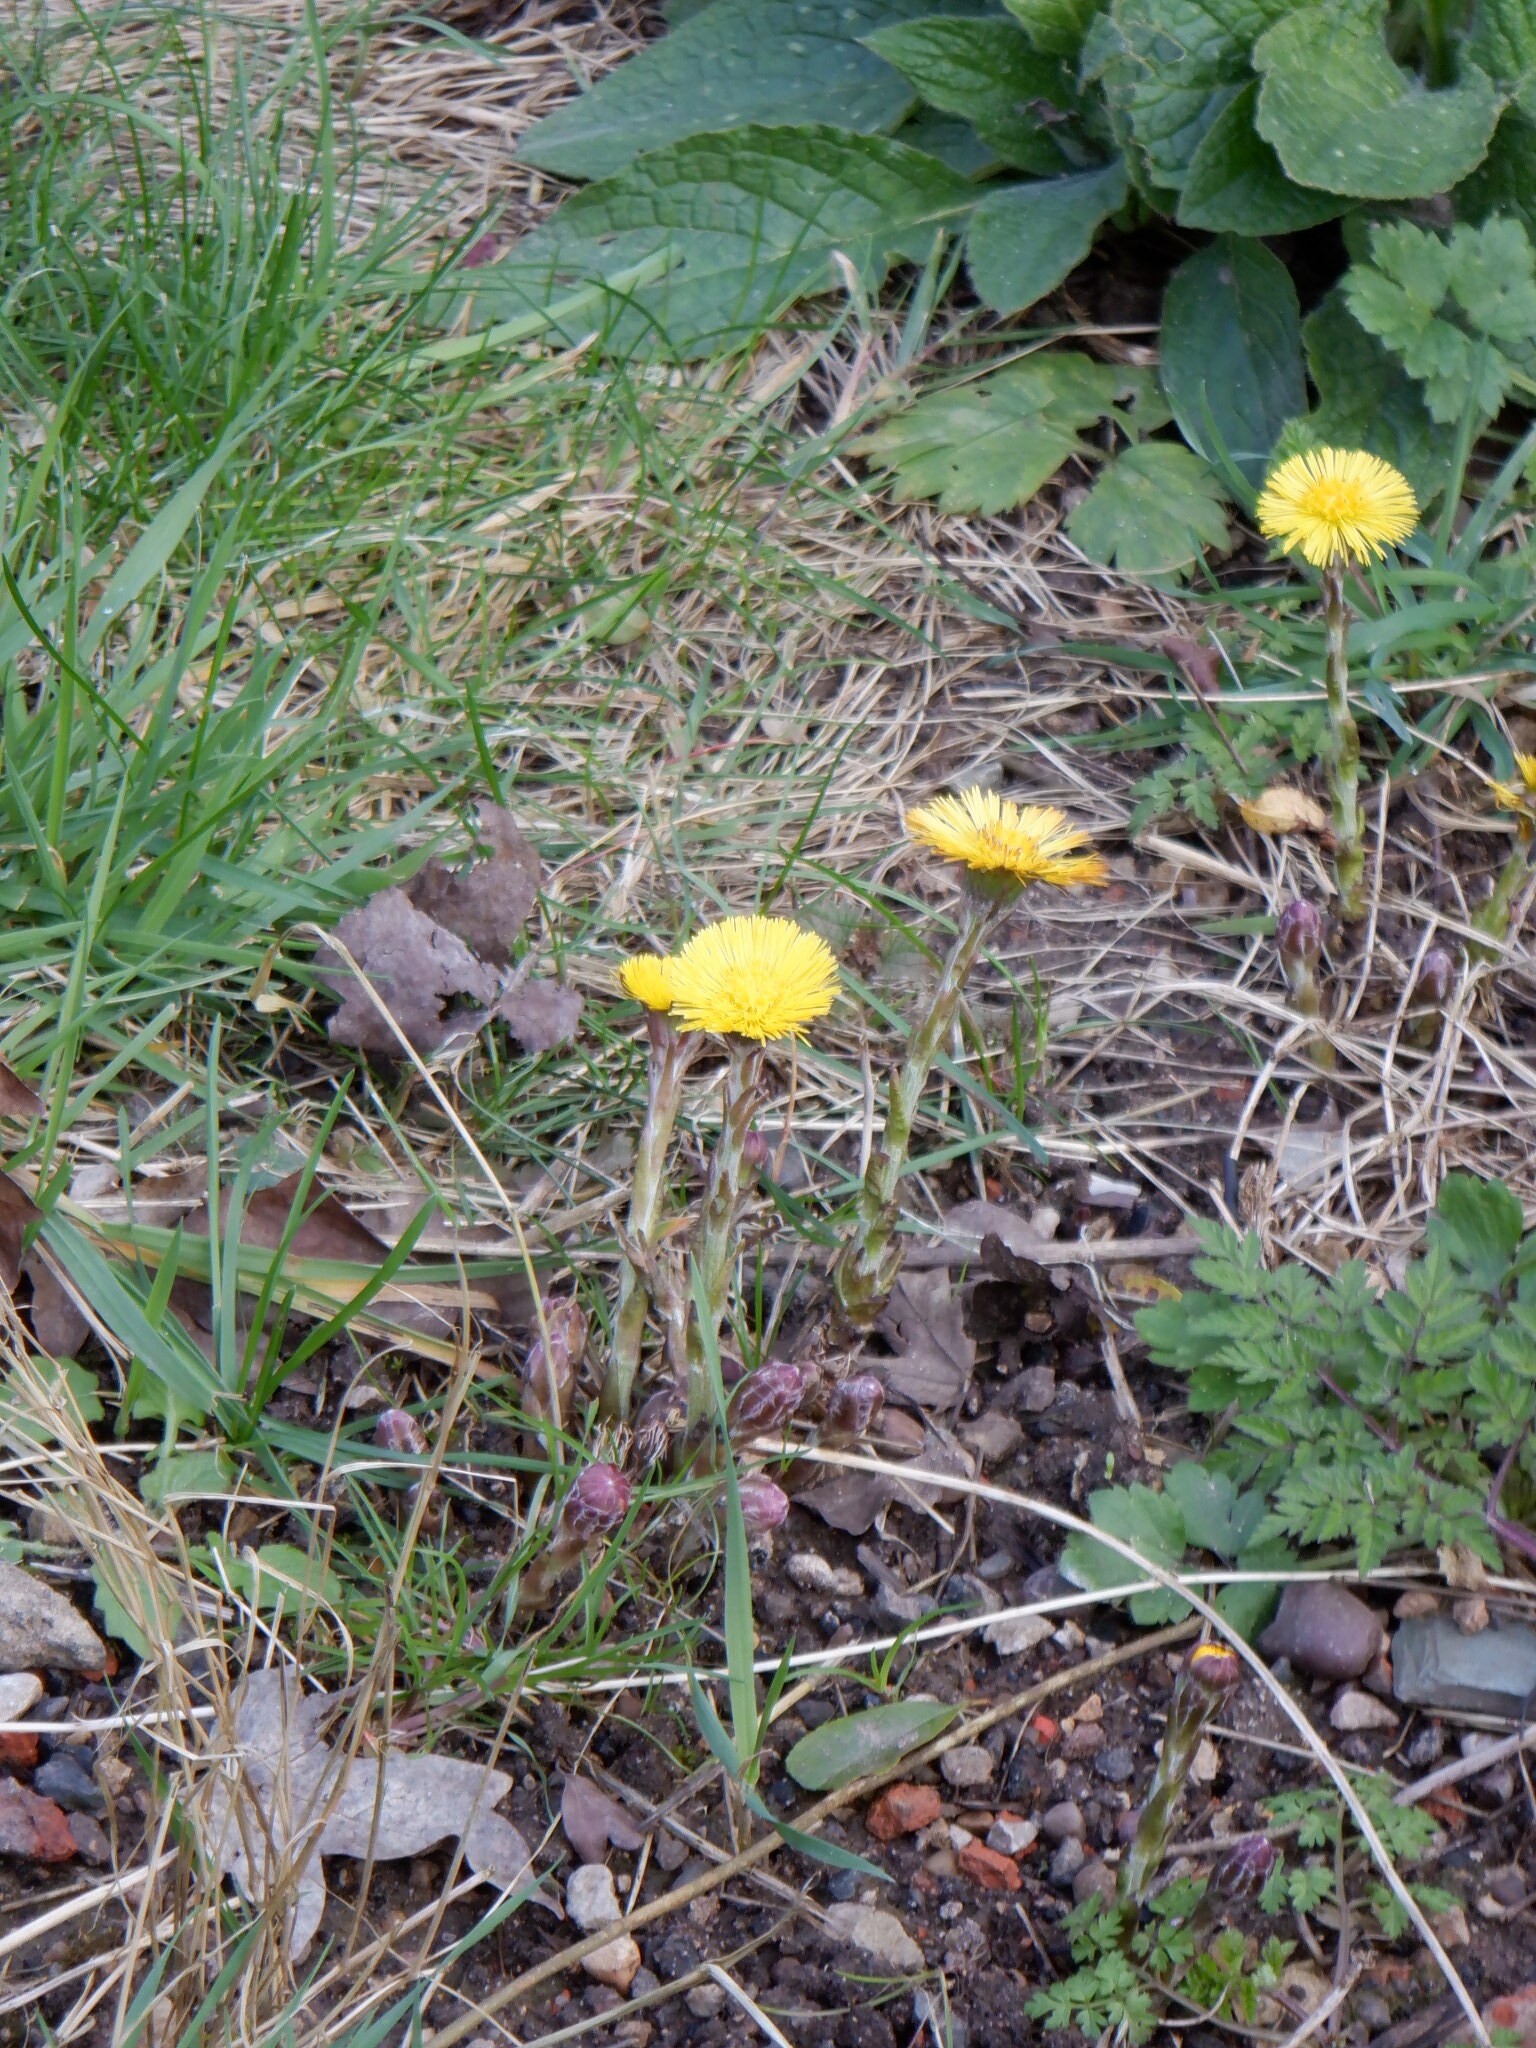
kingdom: Plantae
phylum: Tracheophyta
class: Magnoliopsida
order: Asterales
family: Asteraceae
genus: Tussilago
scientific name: Tussilago farfara
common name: Coltsfoot
